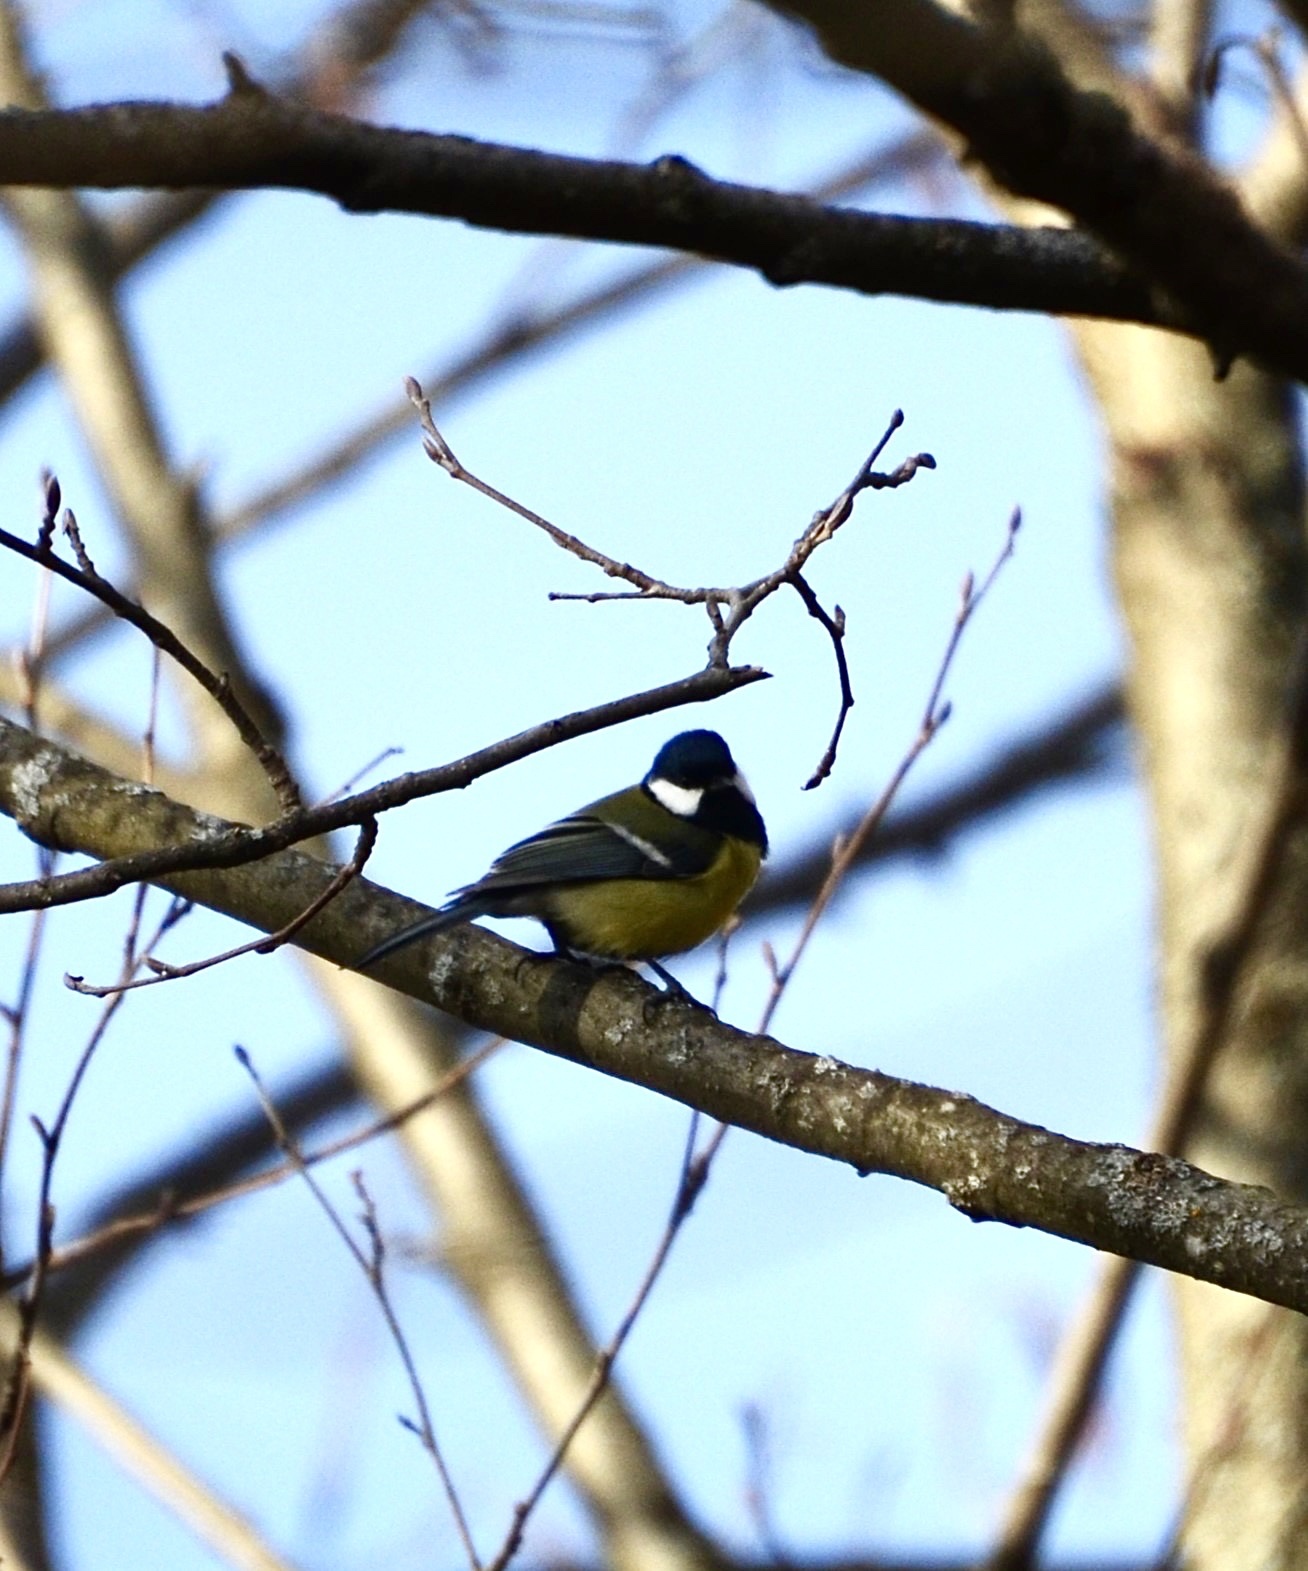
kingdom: Animalia
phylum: Chordata
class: Aves
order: Passeriformes
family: Paridae
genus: Parus
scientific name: Parus major
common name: Great tit
